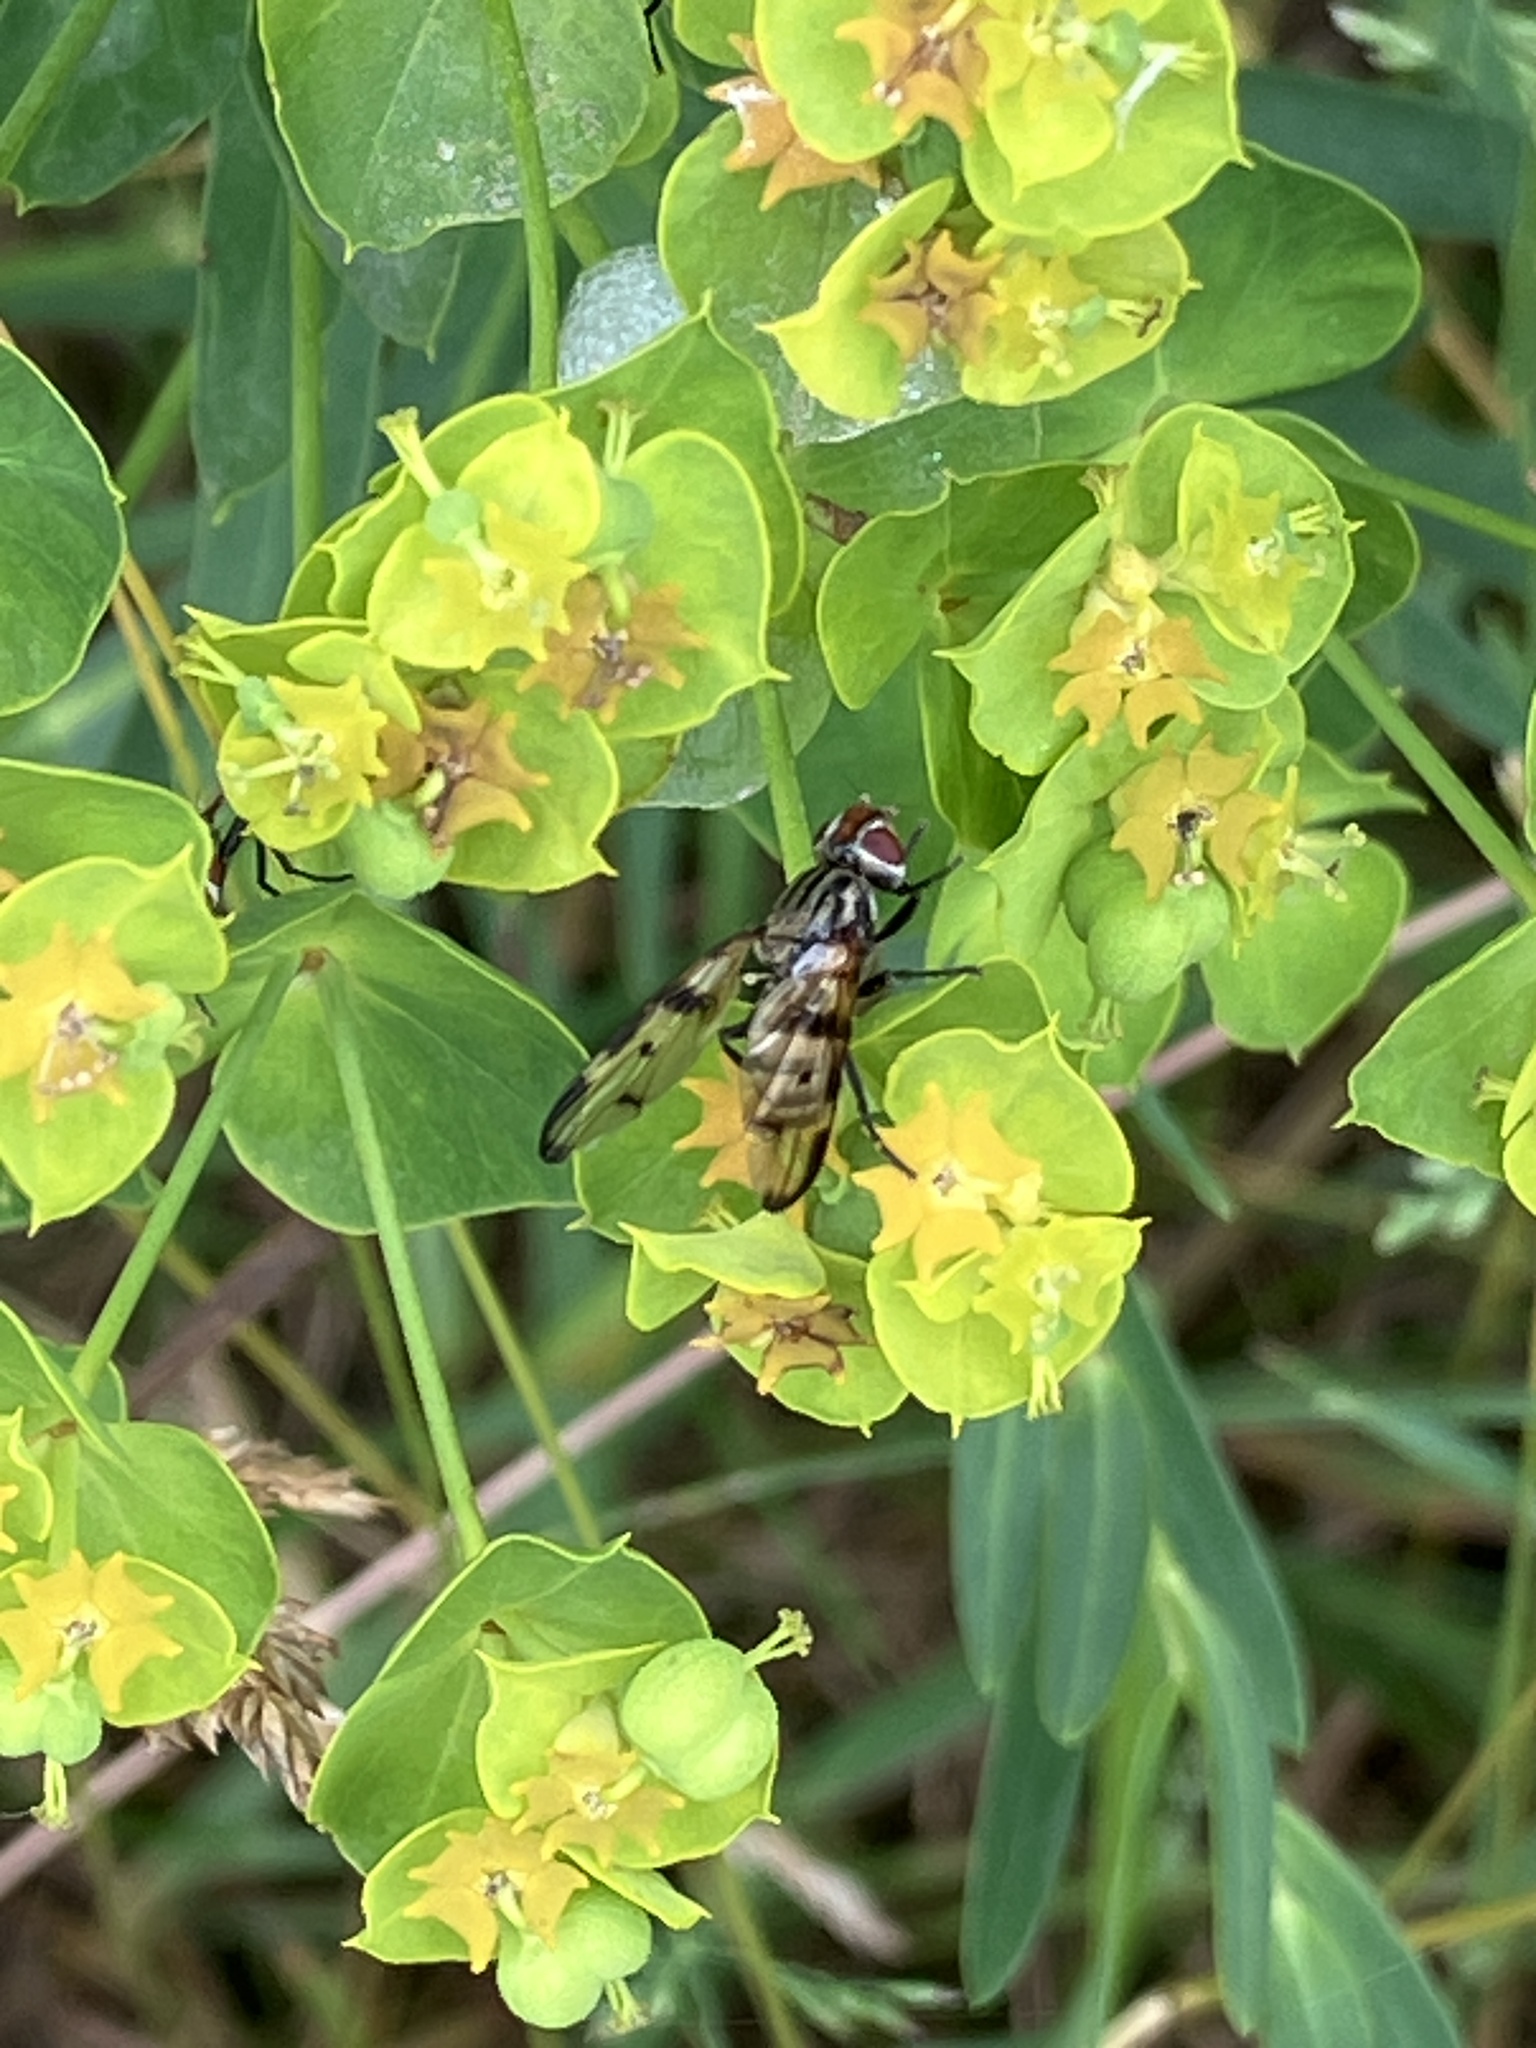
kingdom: Animalia
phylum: Arthropoda
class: Insecta
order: Diptera
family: Ulidiidae
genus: Otites
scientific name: Otites formosa
